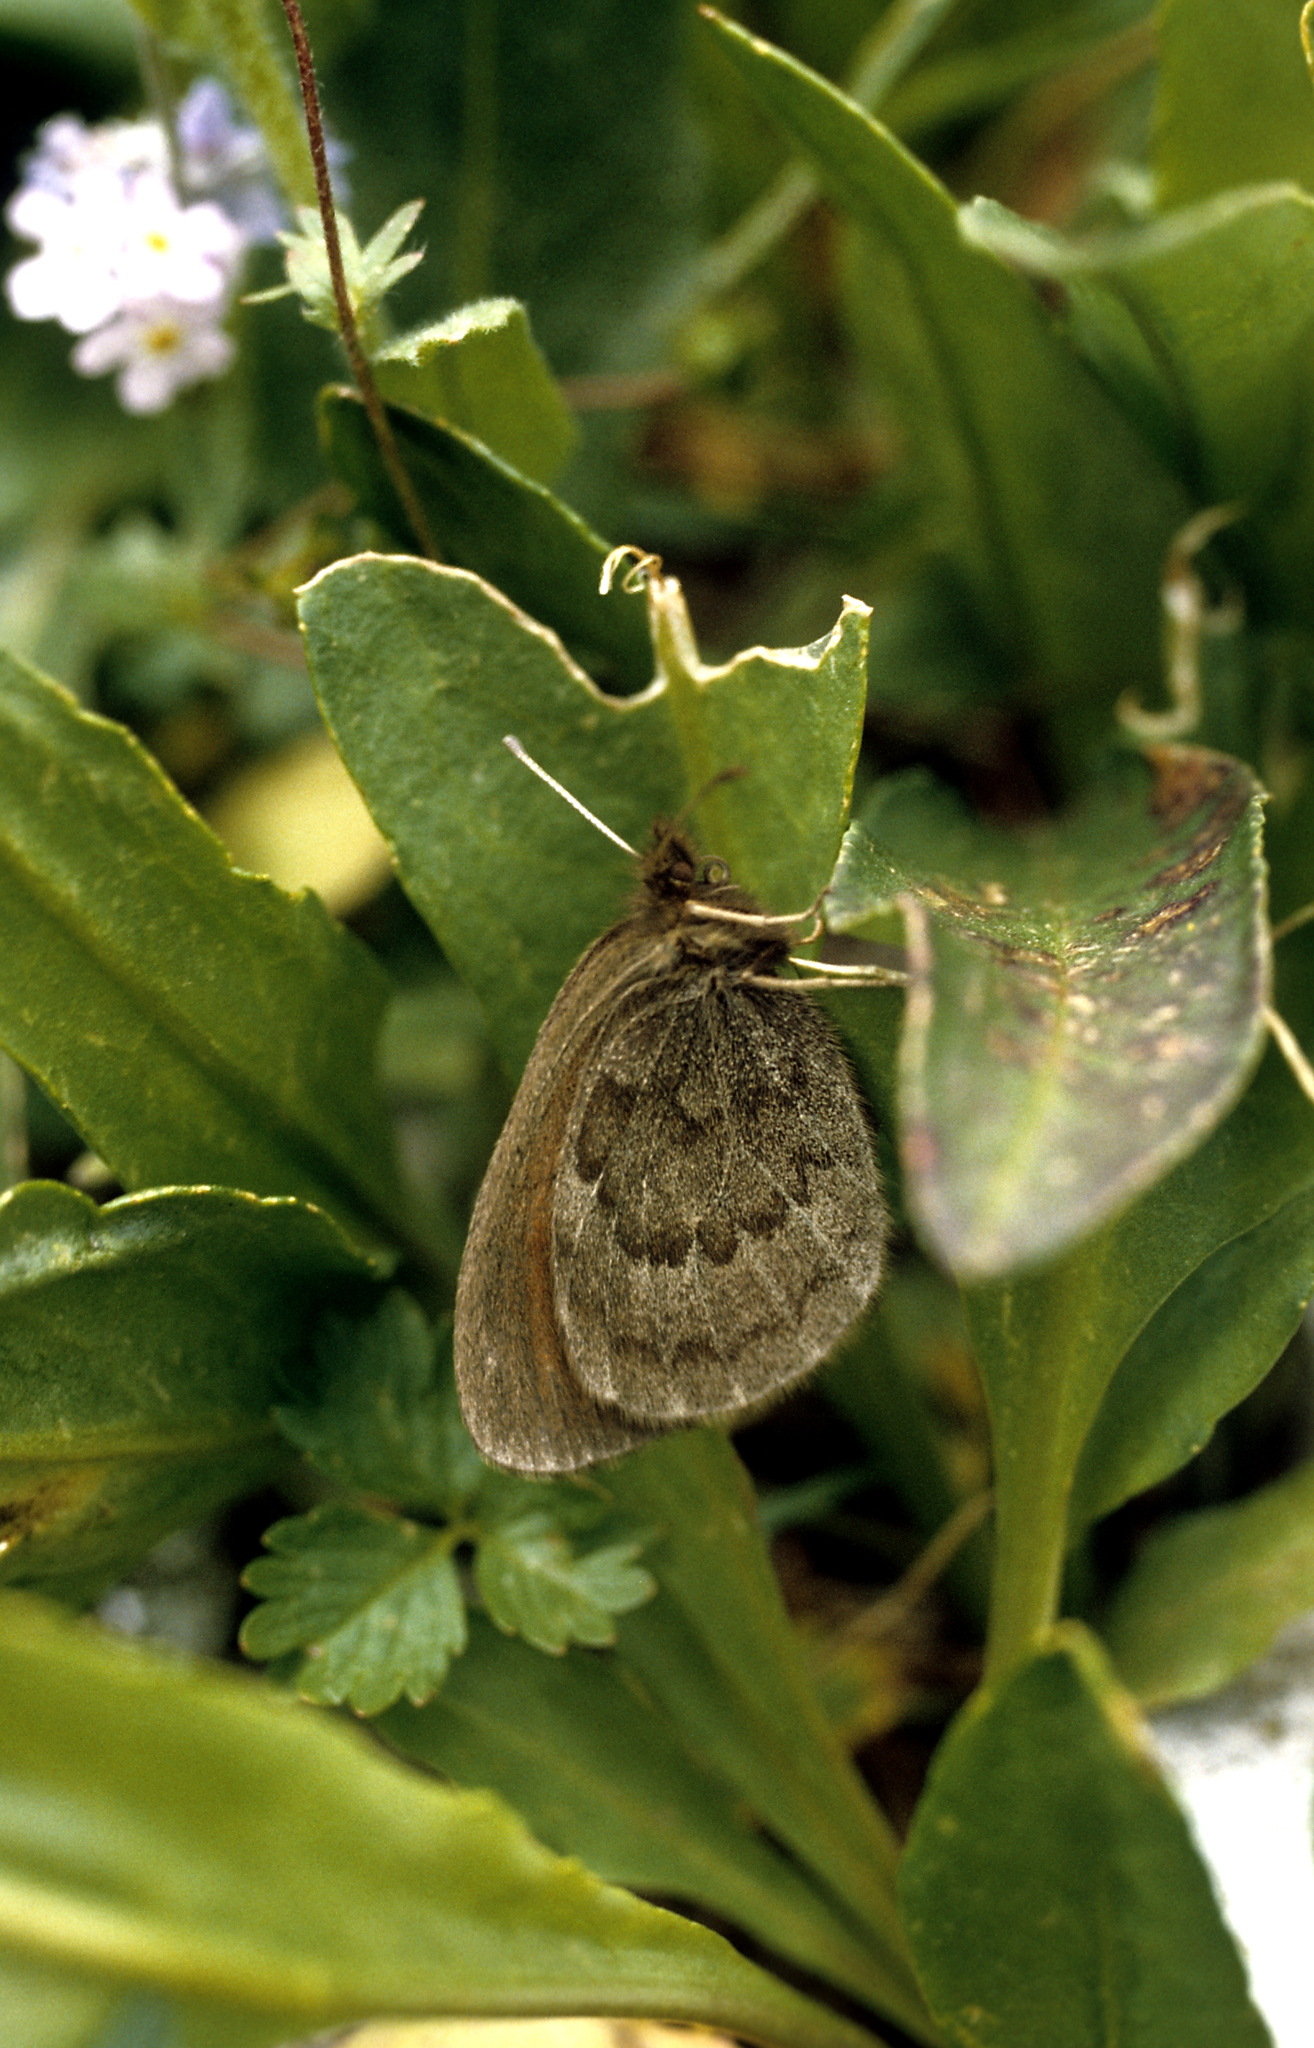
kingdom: Animalia
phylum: Arthropoda
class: Insecta
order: Lepidoptera
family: Nymphalidae
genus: Erebia
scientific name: Erebia ocnus
